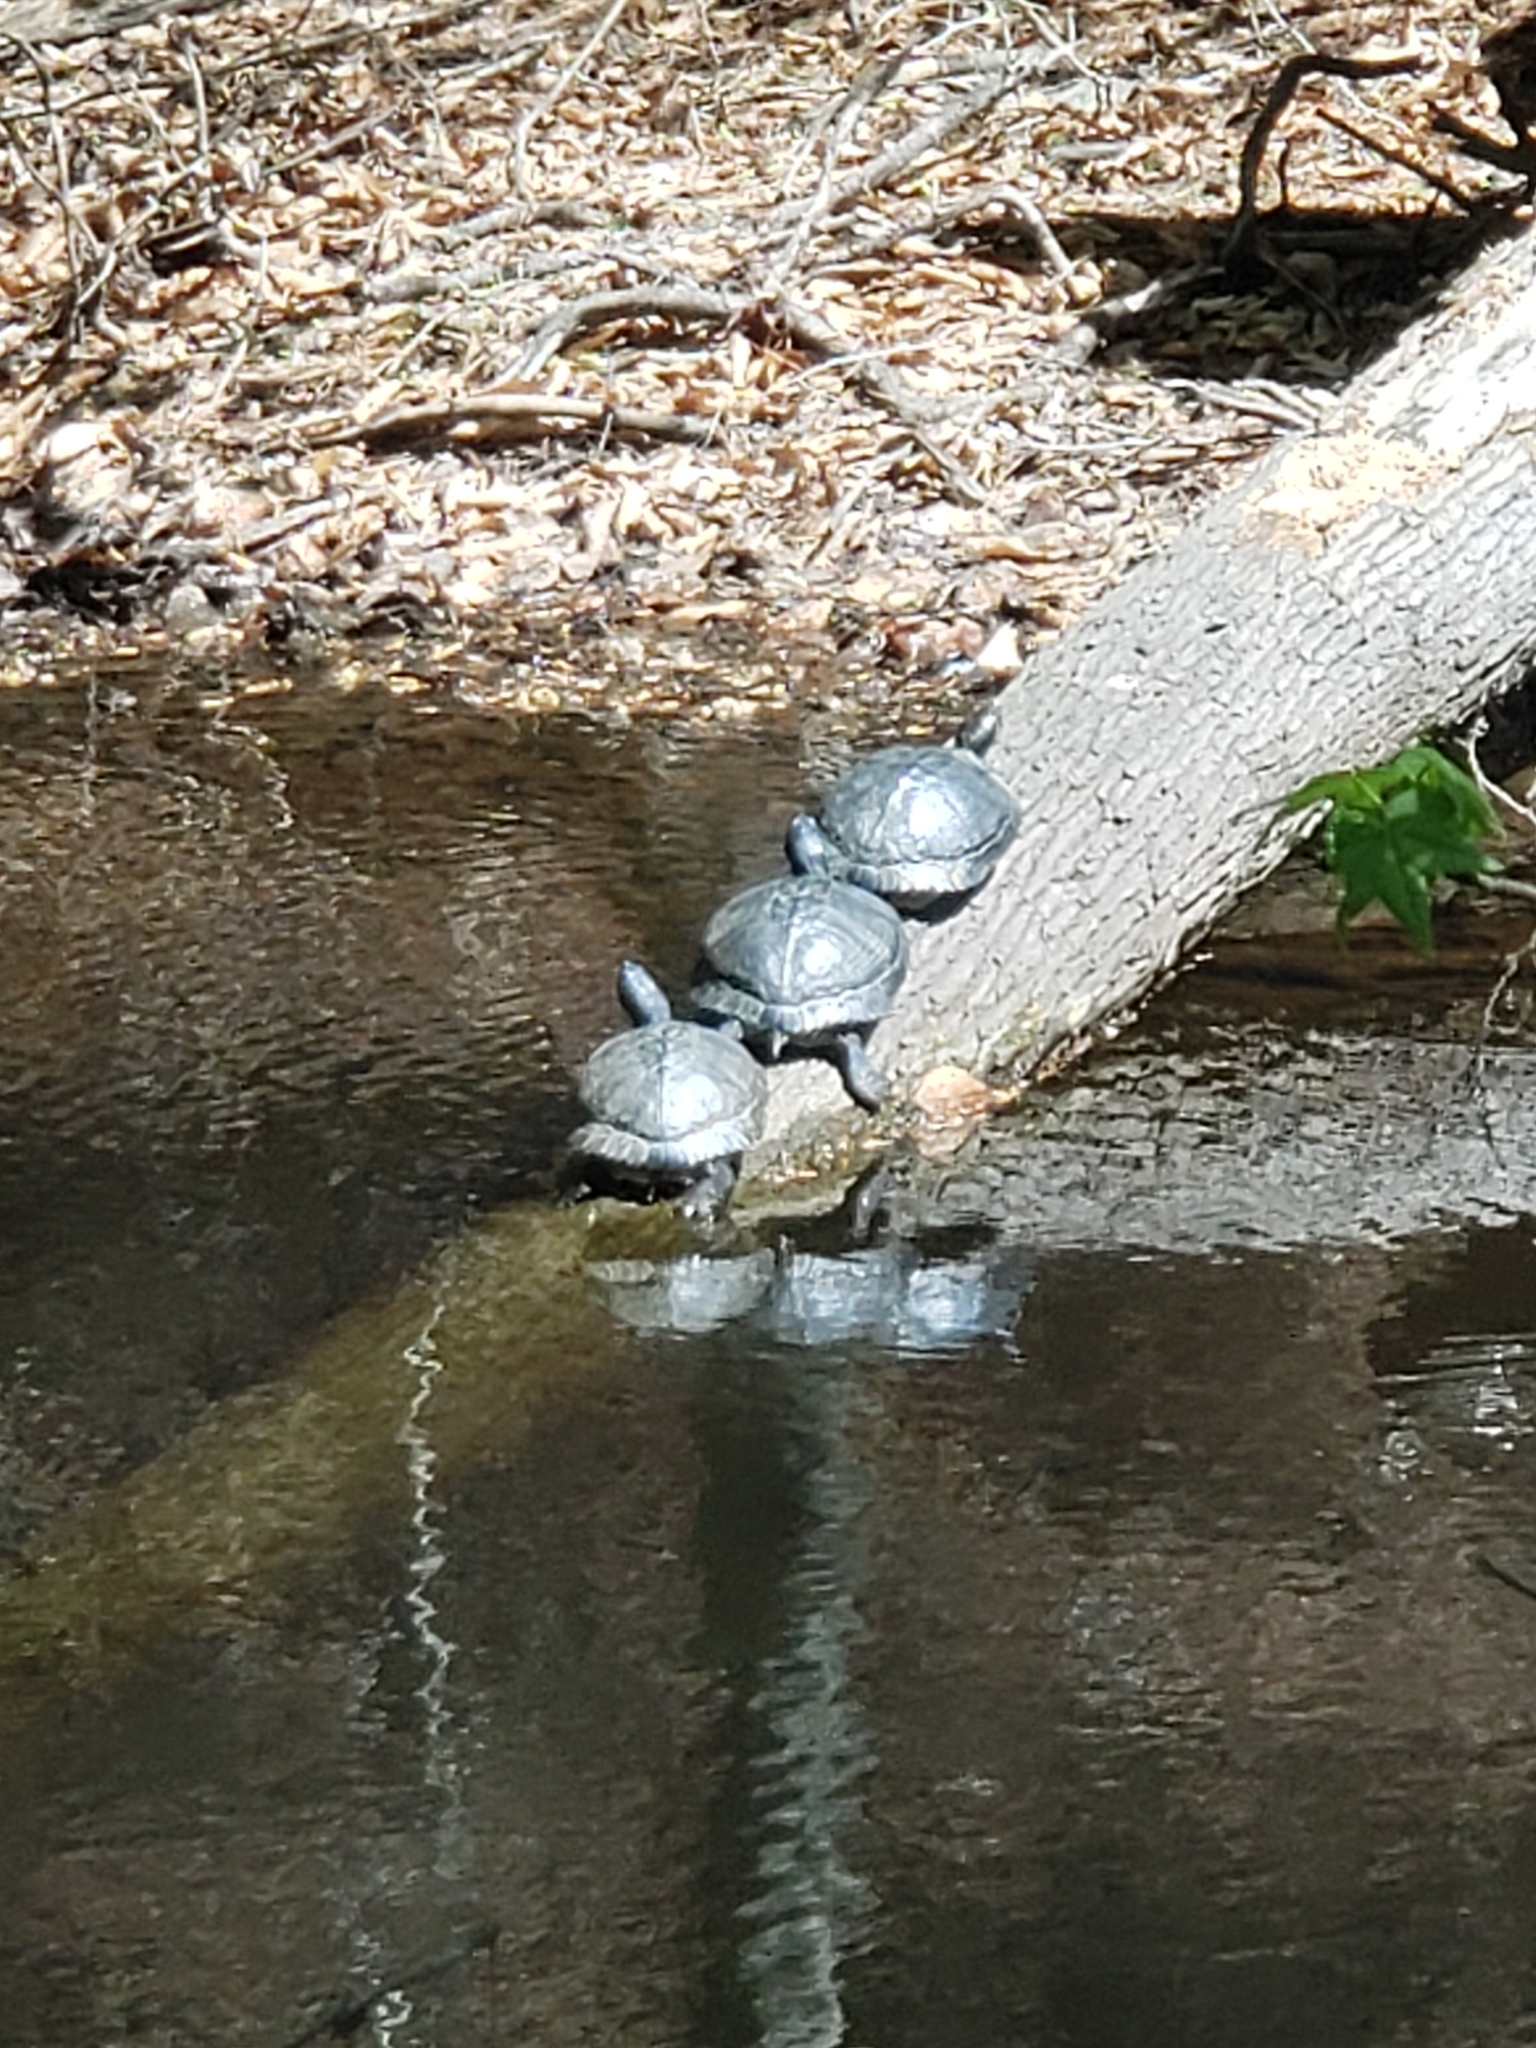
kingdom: Animalia
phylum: Chordata
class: Testudines
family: Emydidae
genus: Trachemys
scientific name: Trachemys scripta
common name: Slider
